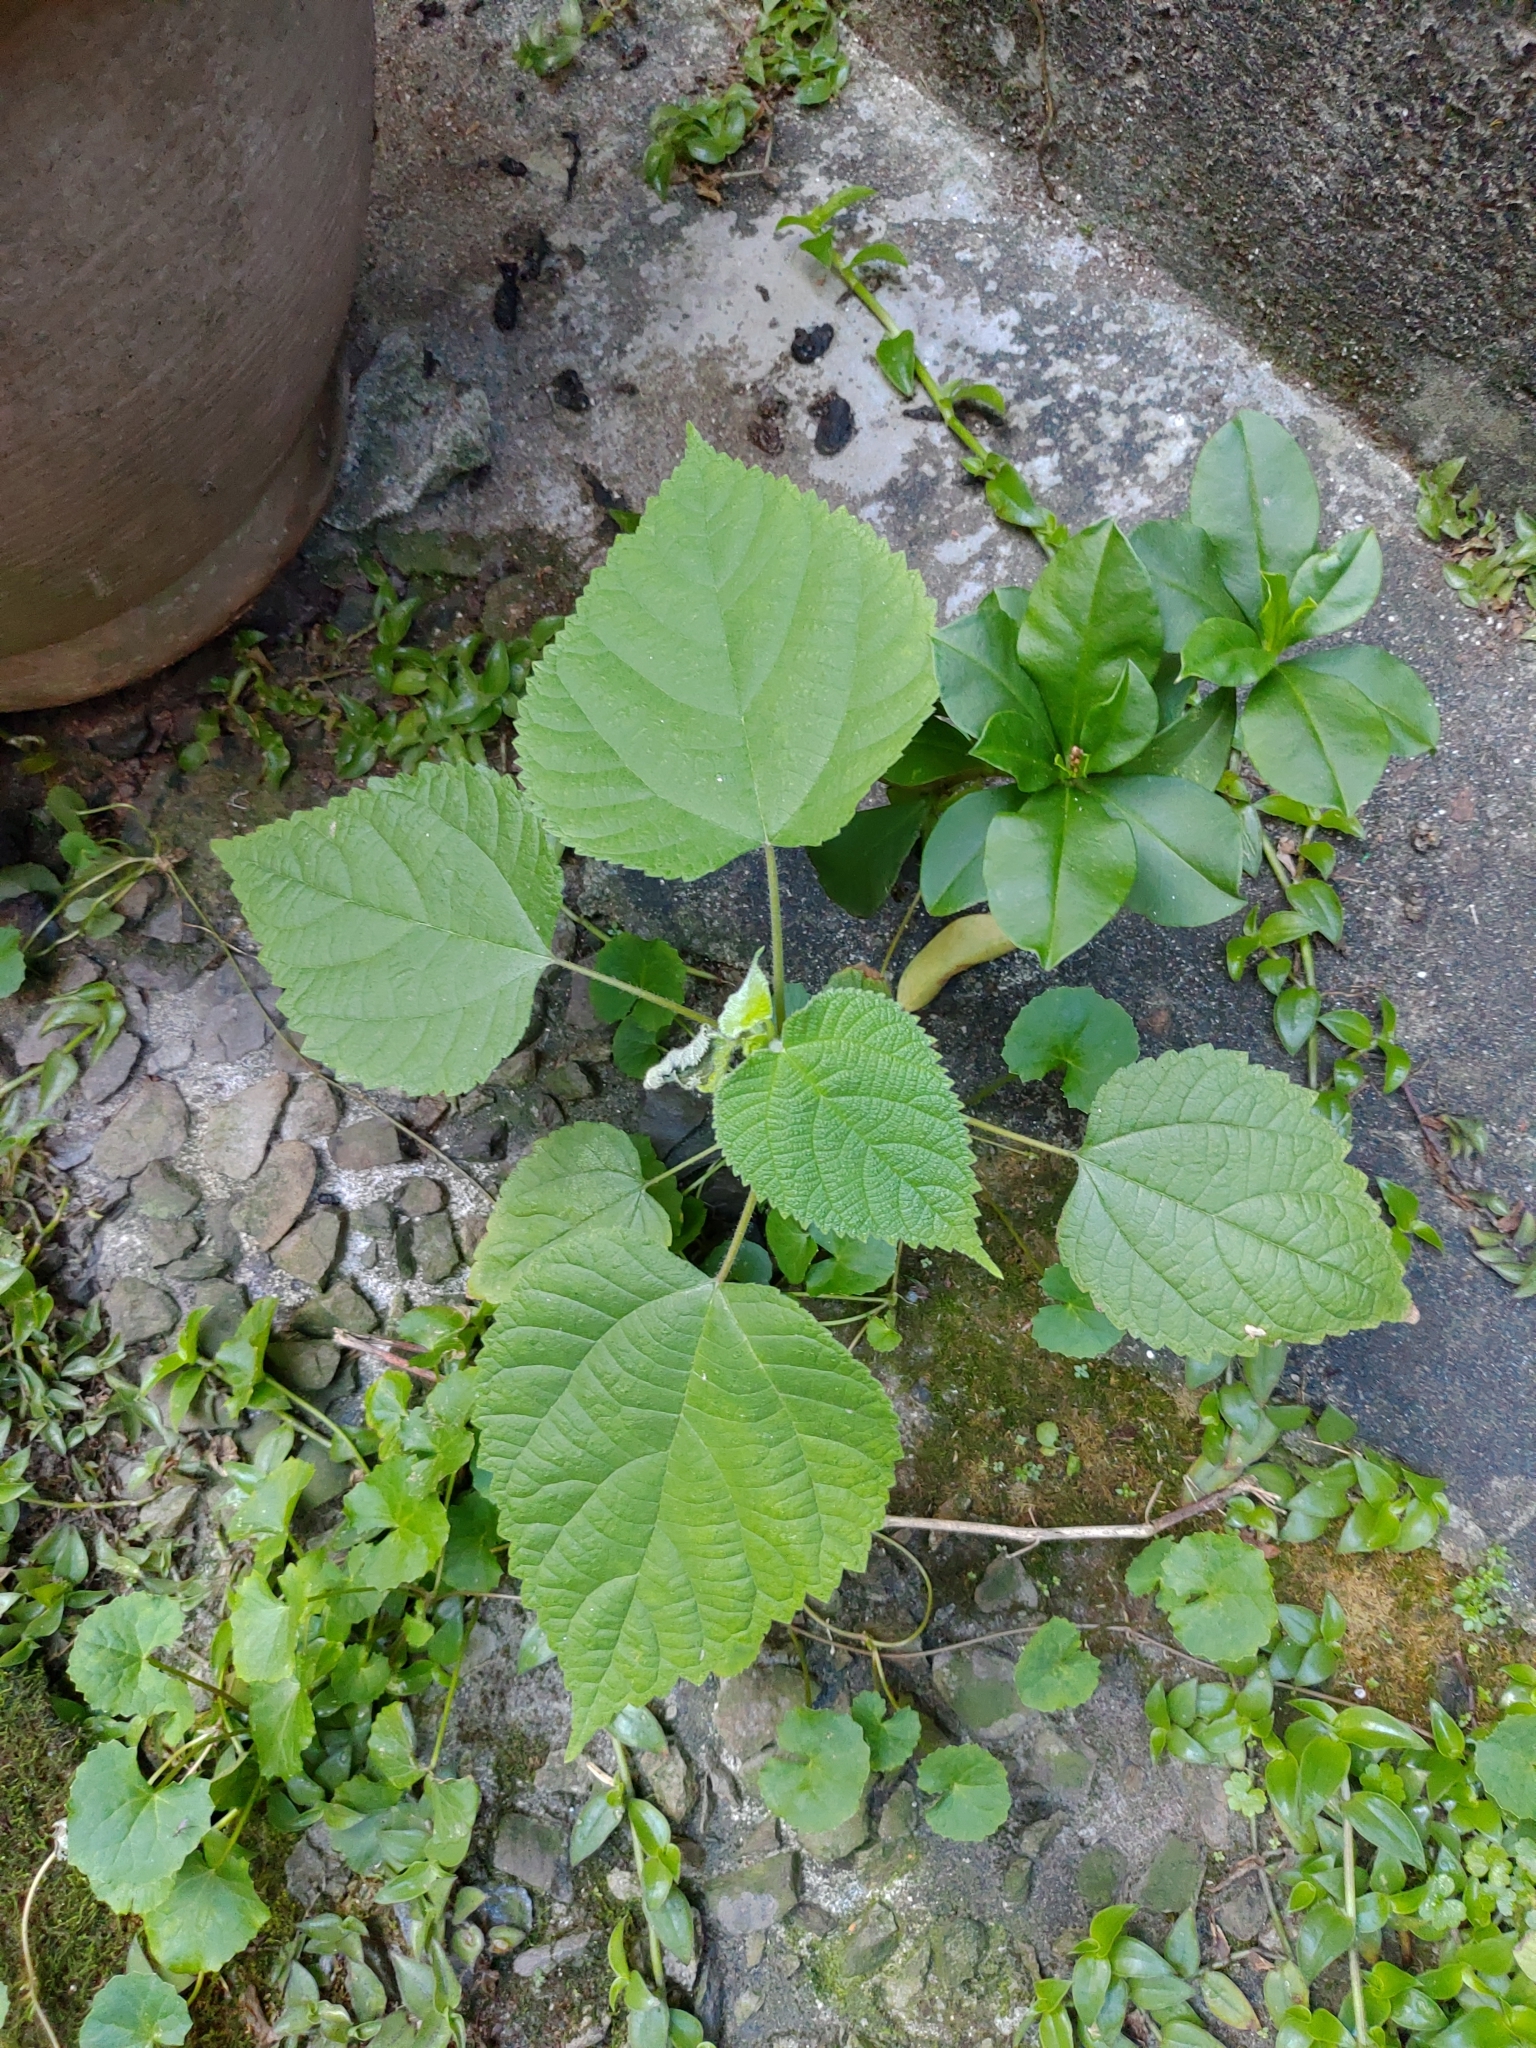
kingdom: Plantae
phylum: Tracheophyta
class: Magnoliopsida
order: Rosales
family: Moraceae
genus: Broussonetia
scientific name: Broussonetia papyrifera
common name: Paper mulberry
